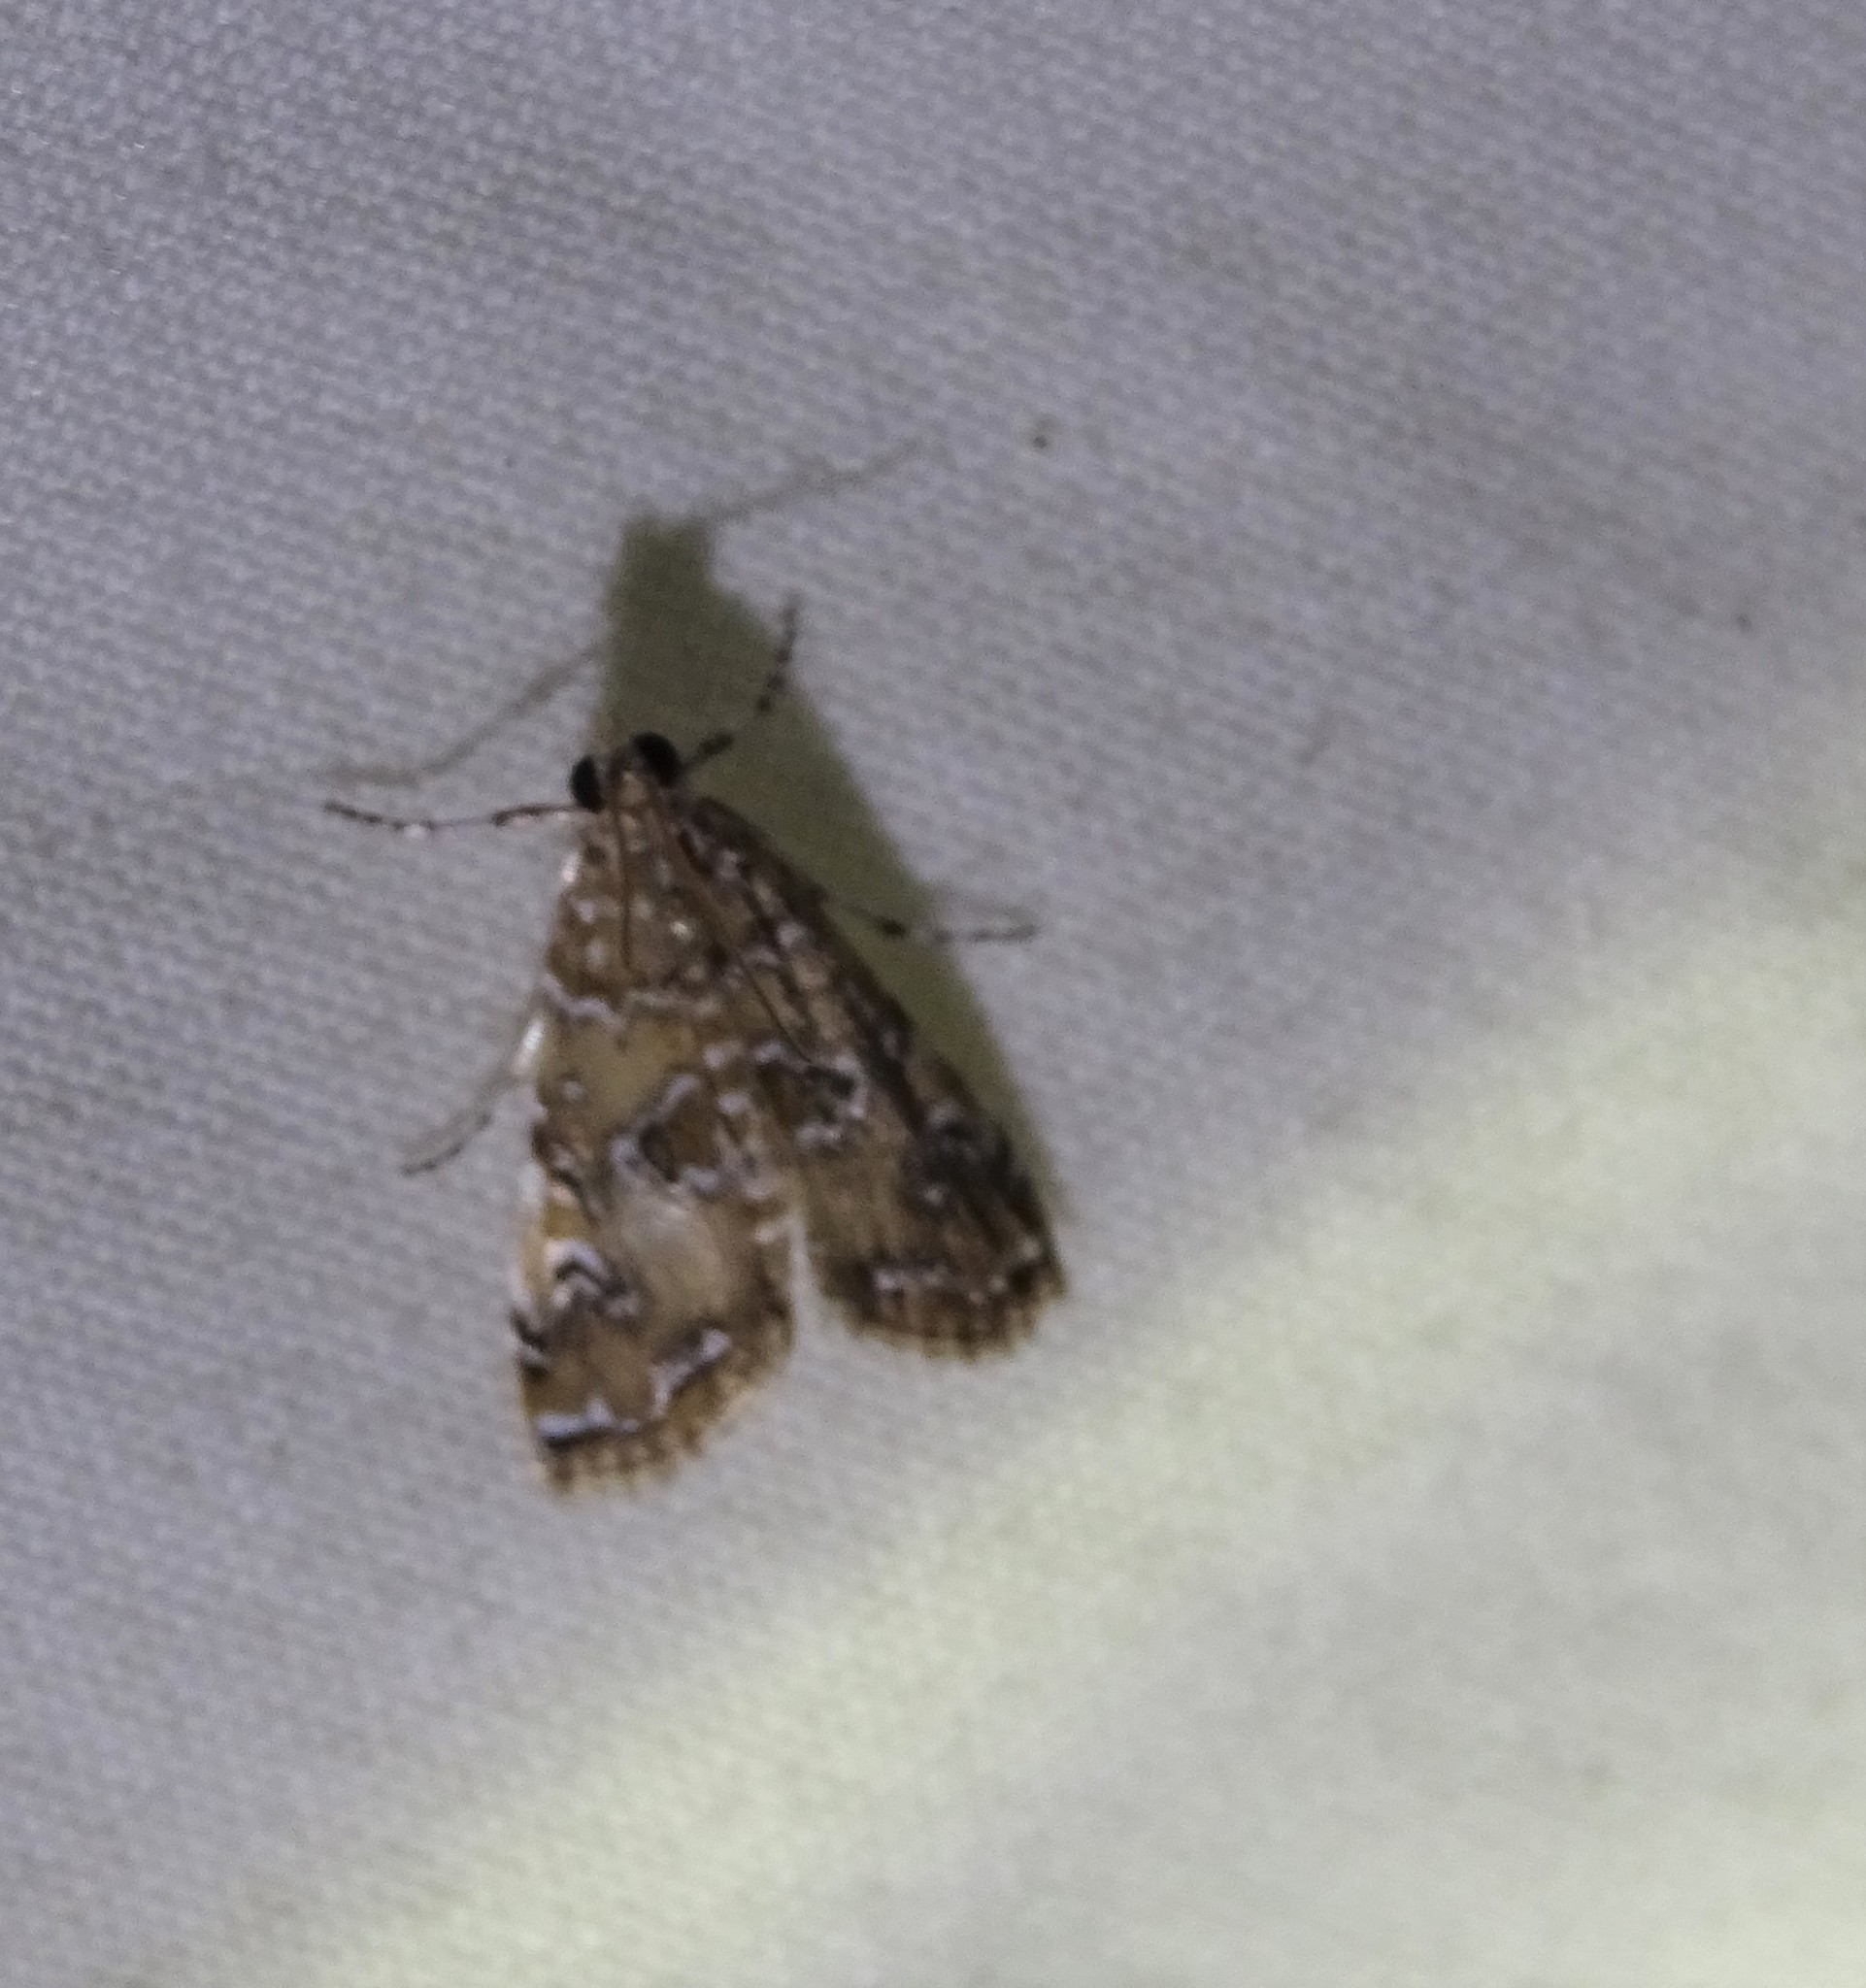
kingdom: Animalia
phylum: Arthropoda
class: Insecta
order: Lepidoptera
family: Crambidae
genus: Elophila
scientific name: Elophila gyralis
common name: Waterlily borer moth
